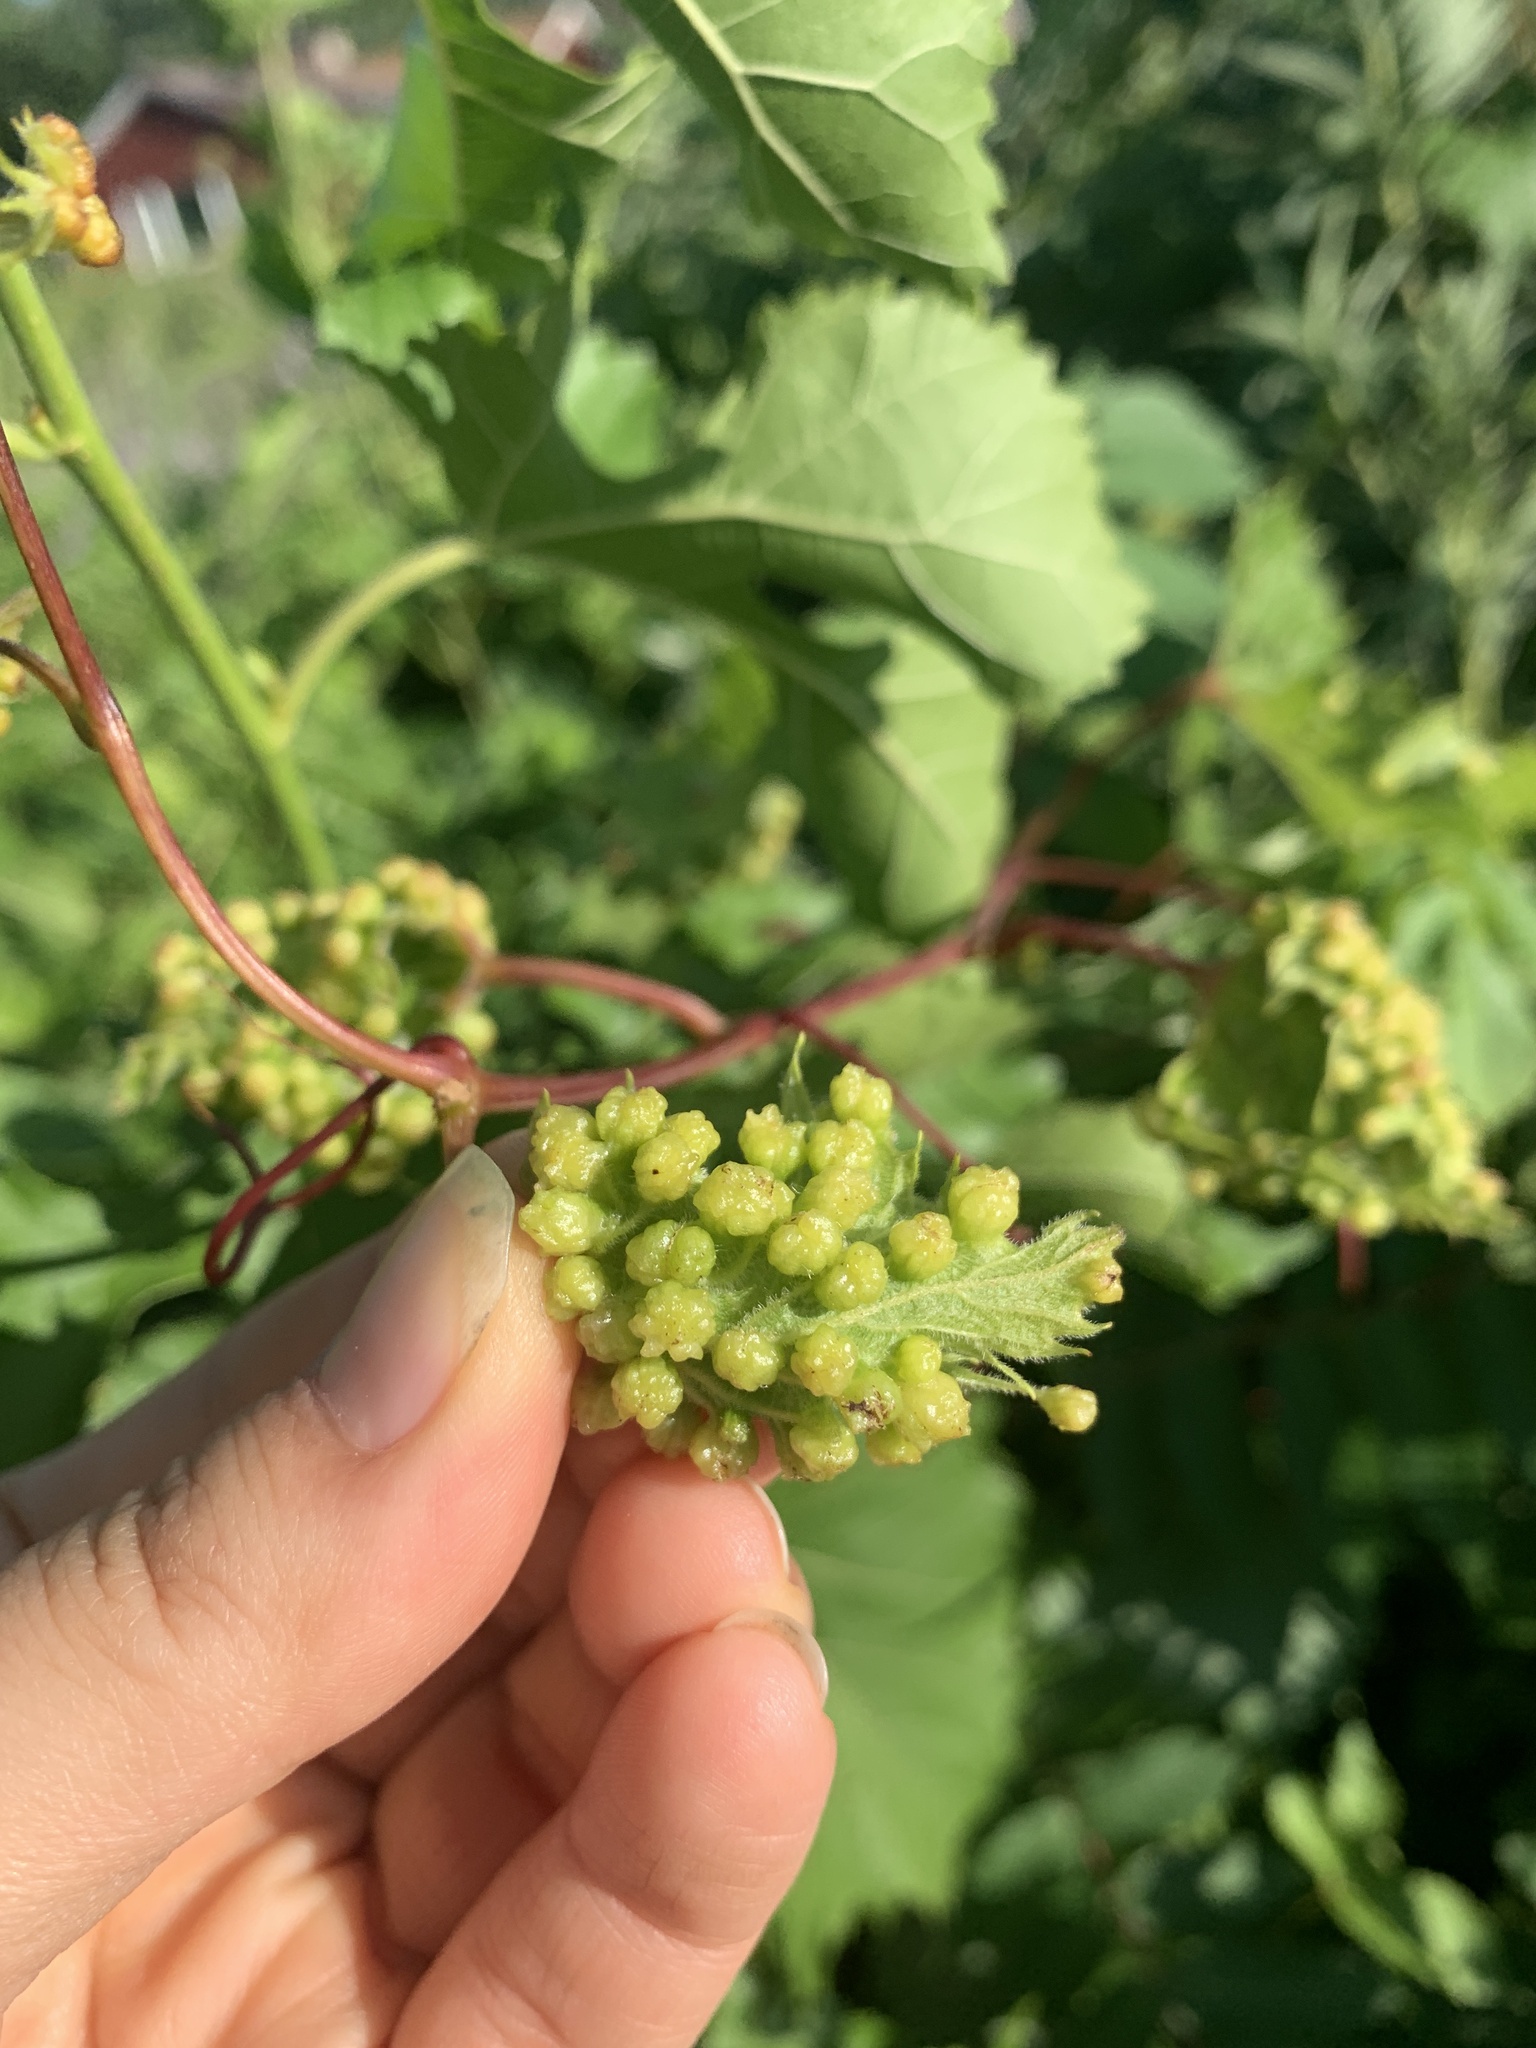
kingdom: Animalia
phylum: Arthropoda
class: Insecta
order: Hemiptera
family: Phylloxeridae
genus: Daktulosphaira
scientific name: Daktulosphaira vitifoliae
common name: Grape phylloxera
